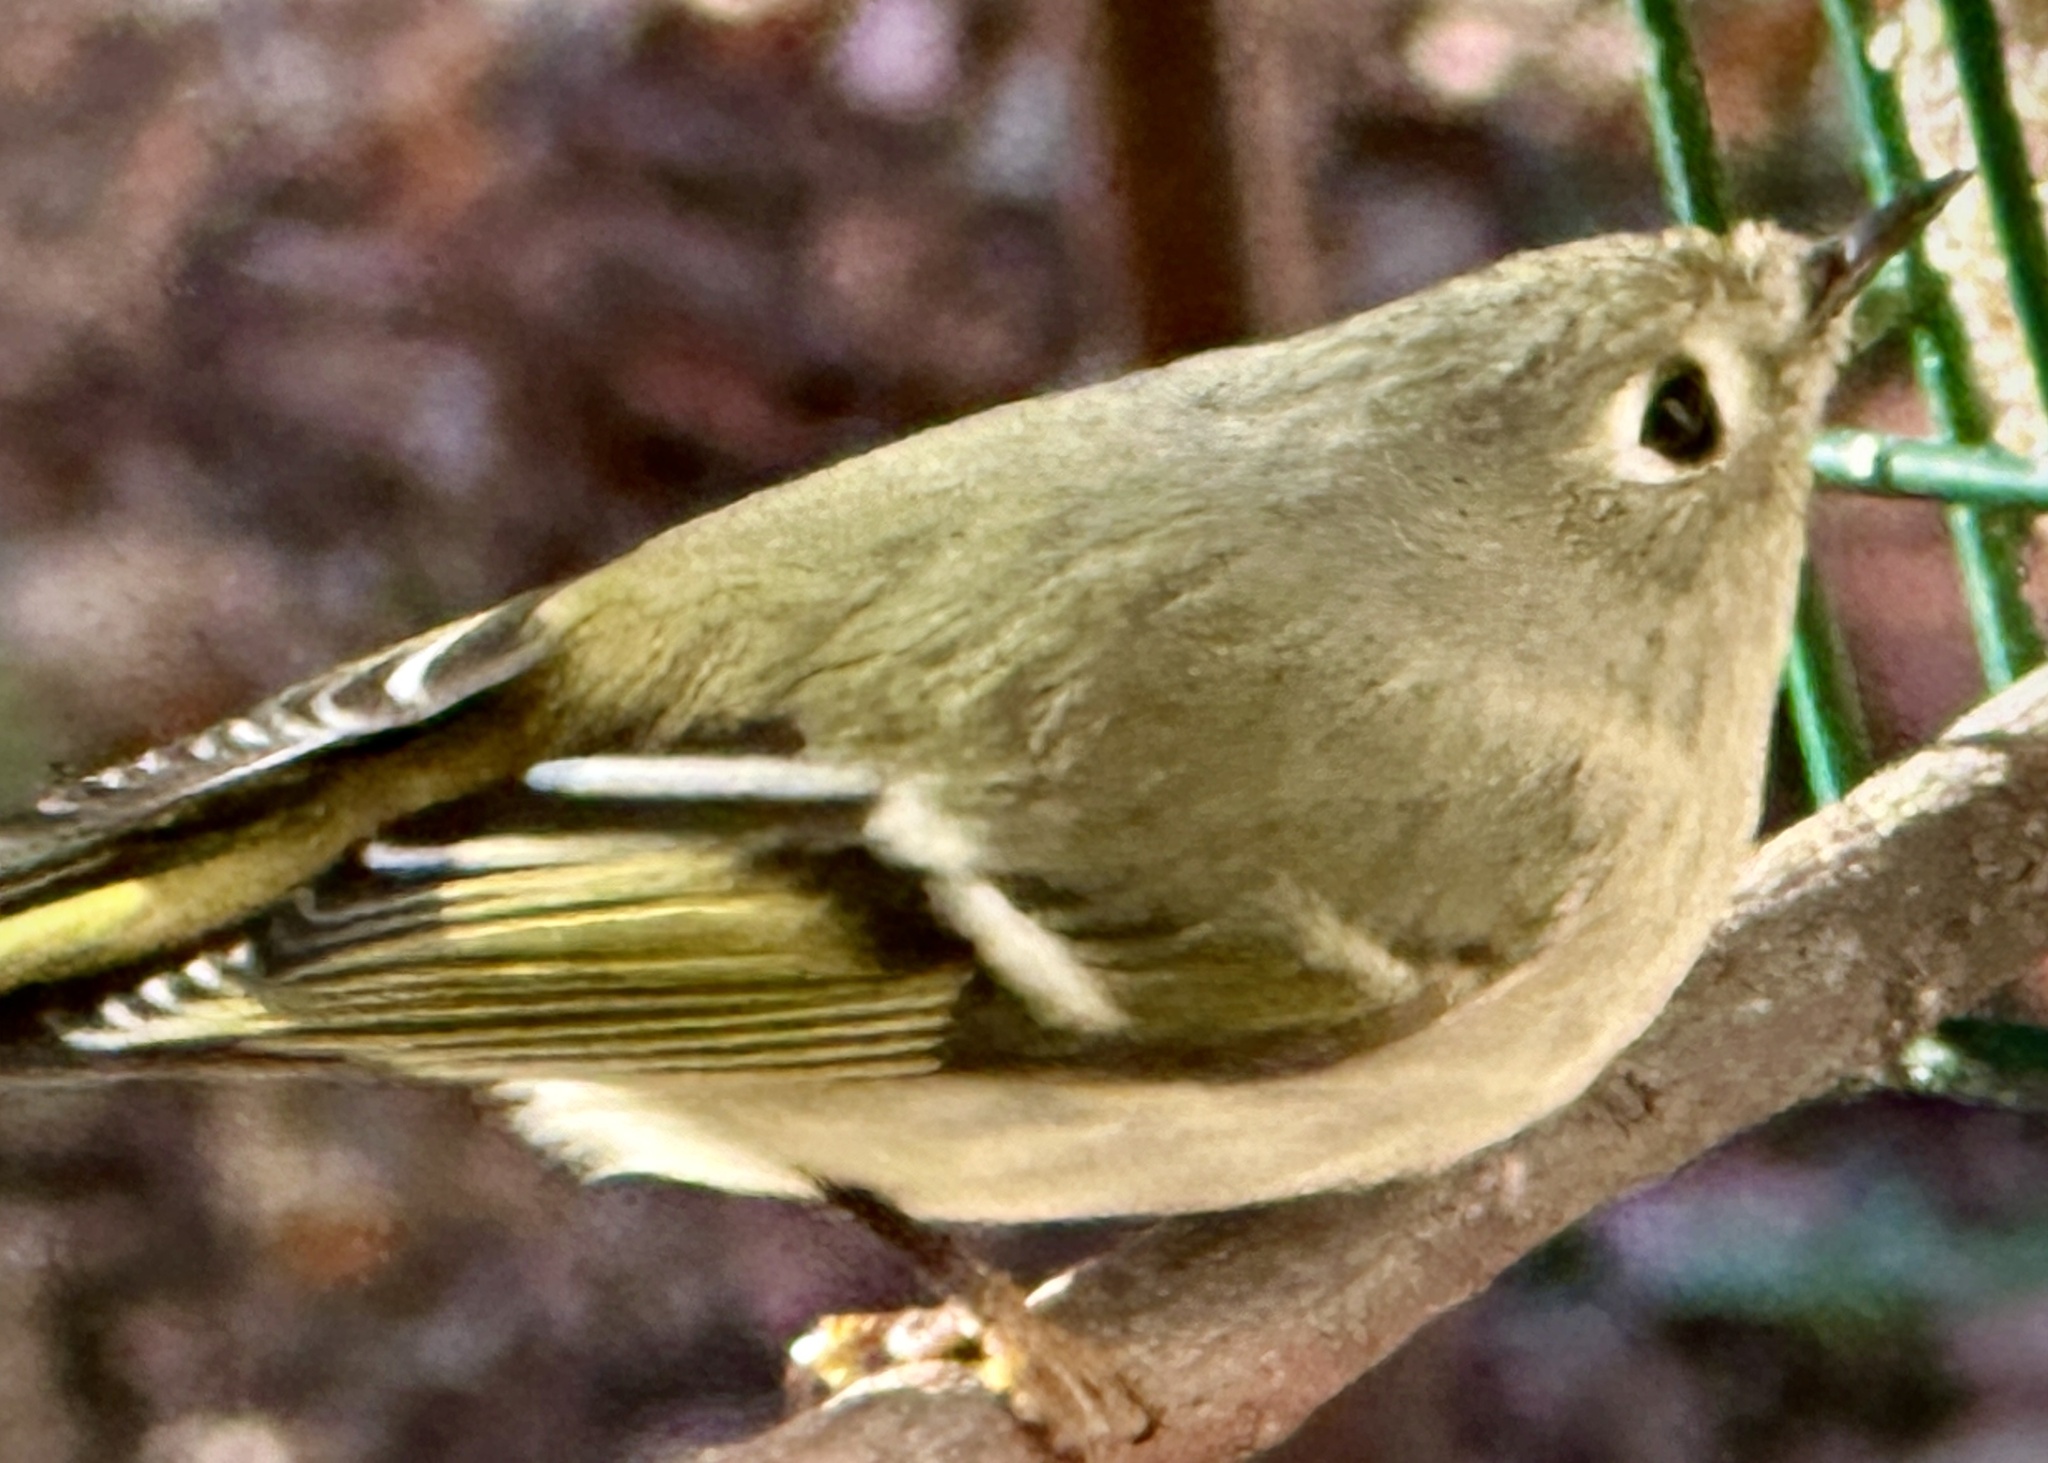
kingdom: Animalia
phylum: Chordata
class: Aves
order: Passeriformes
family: Regulidae
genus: Regulus
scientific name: Regulus calendula
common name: Ruby-crowned kinglet
